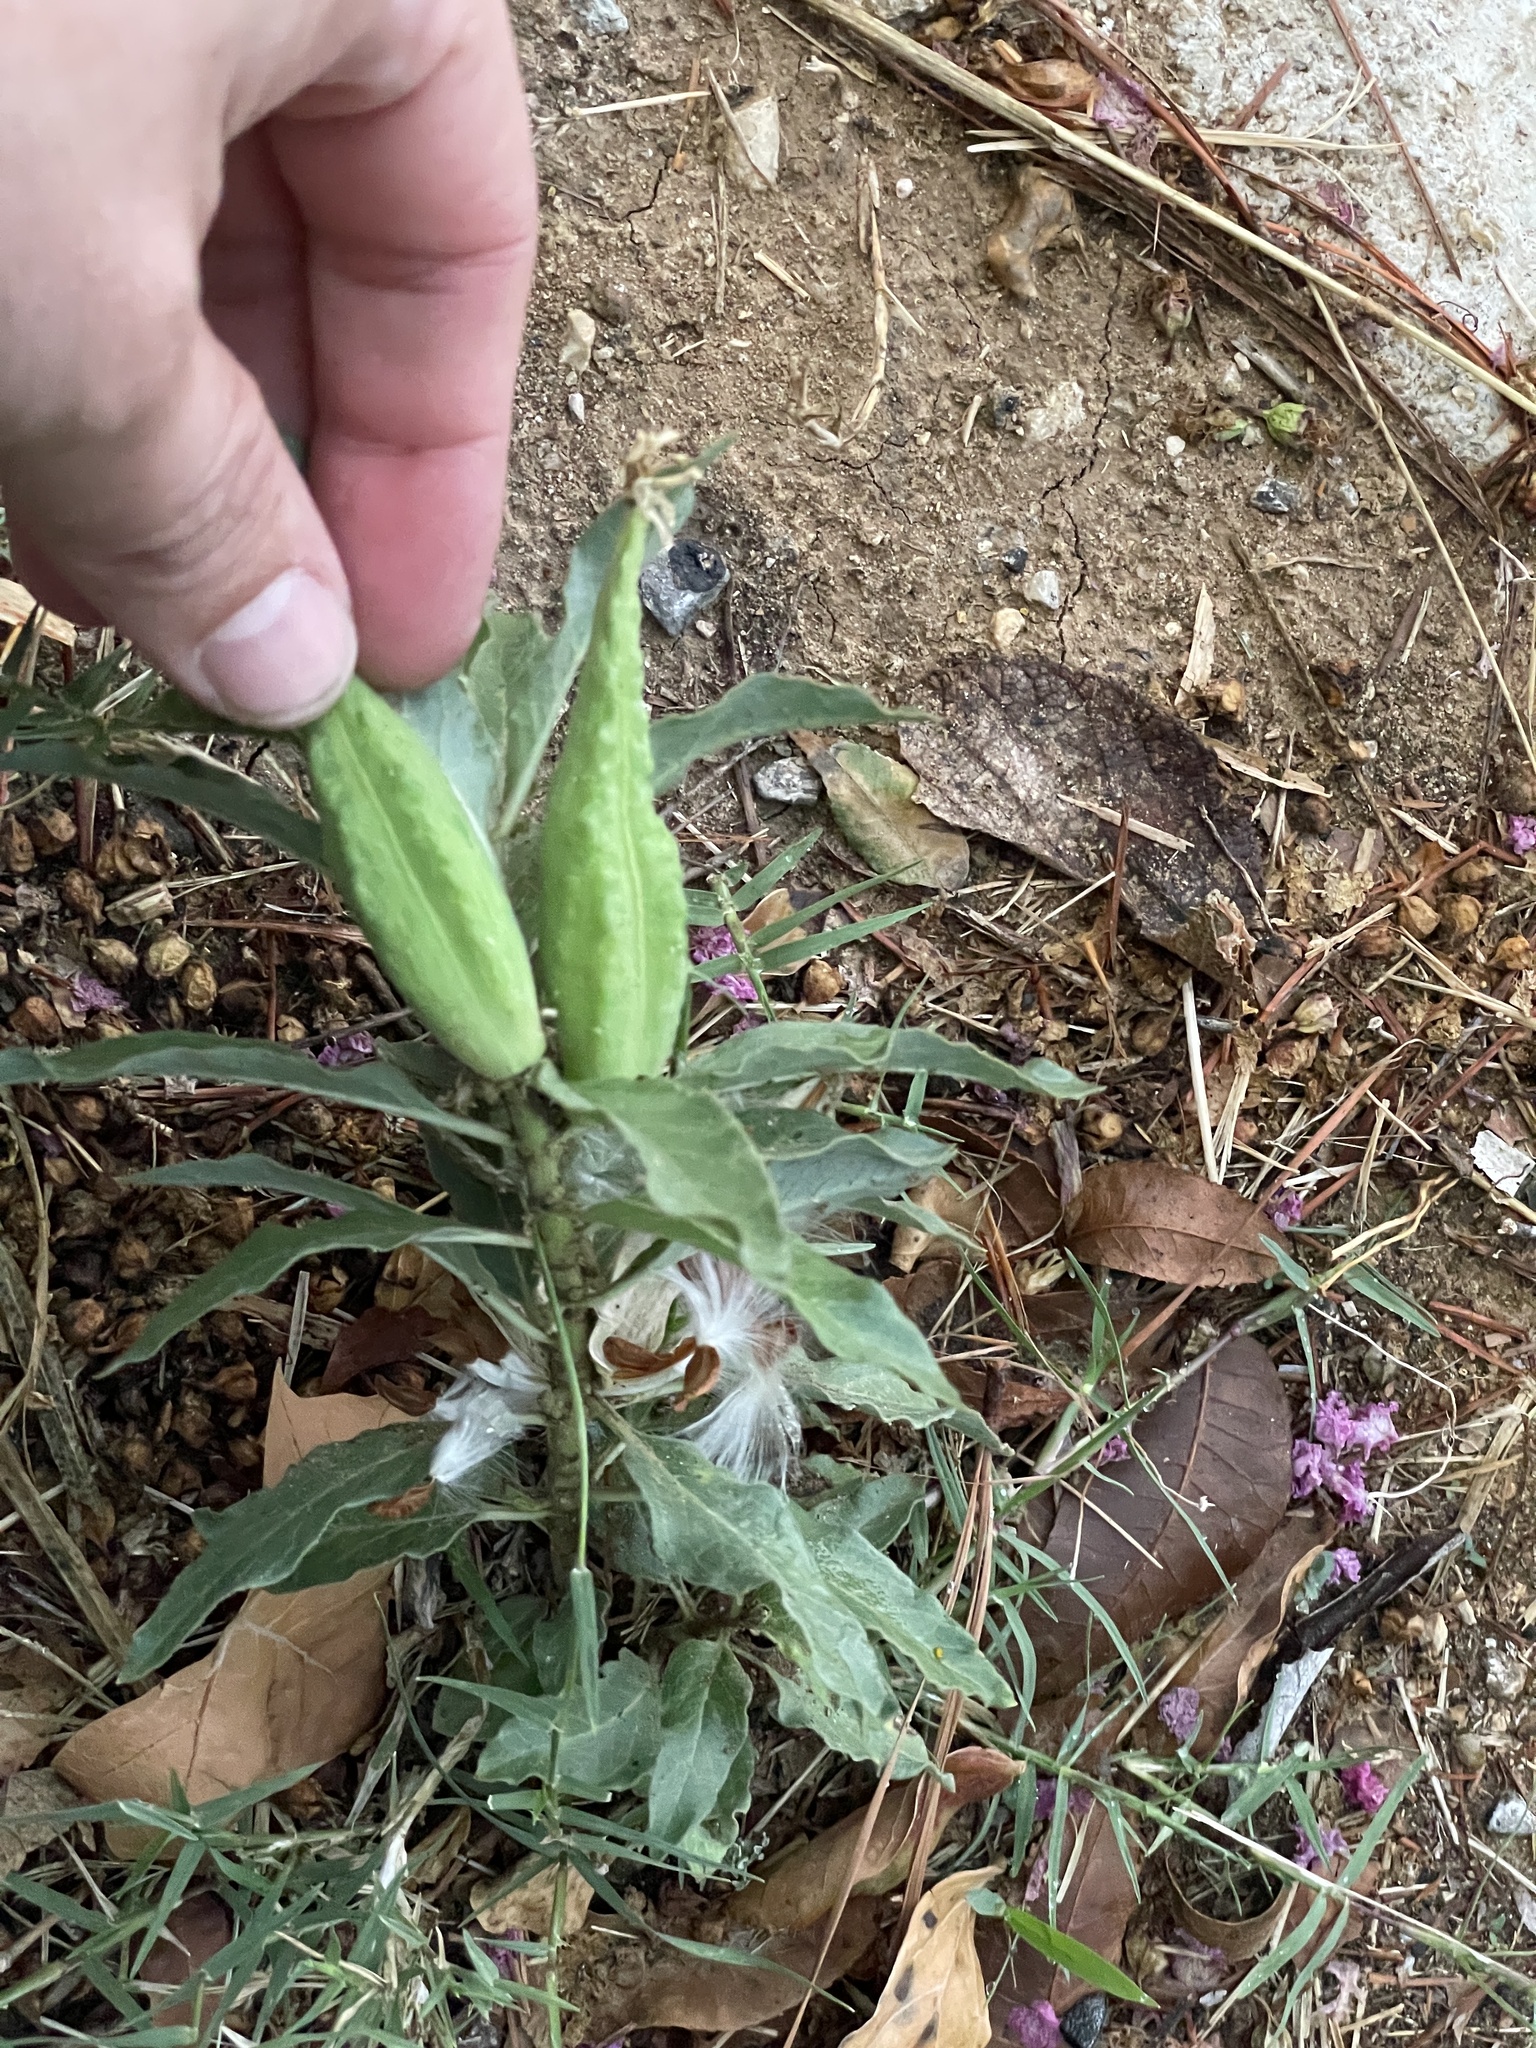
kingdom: Plantae
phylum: Tracheophyta
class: Magnoliopsida
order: Gentianales
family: Apocynaceae
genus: Asclepias
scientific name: Asclepias oenotheroides
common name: Zizotes milkweed
